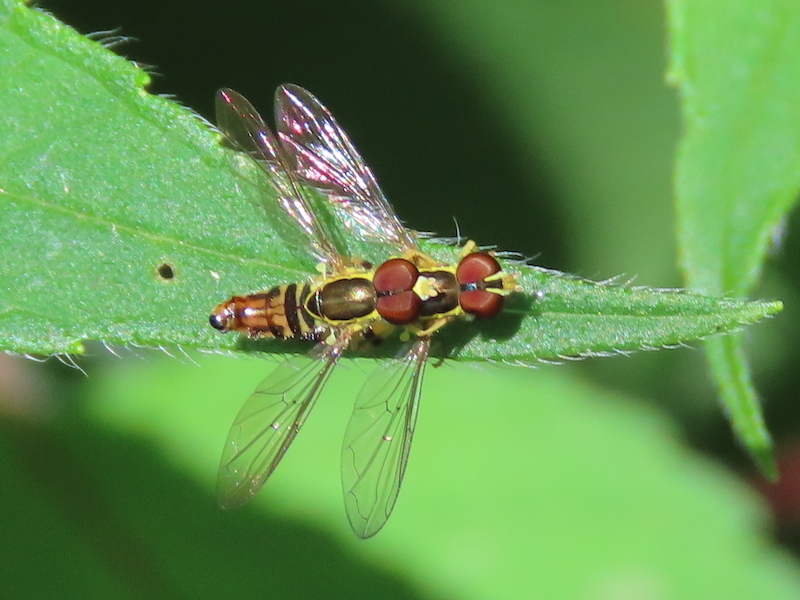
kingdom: Animalia
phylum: Arthropoda
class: Insecta
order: Diptera
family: Syrphidae
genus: Toxomerus
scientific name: Toxomerus geminatus
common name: Eastern calligrapher
